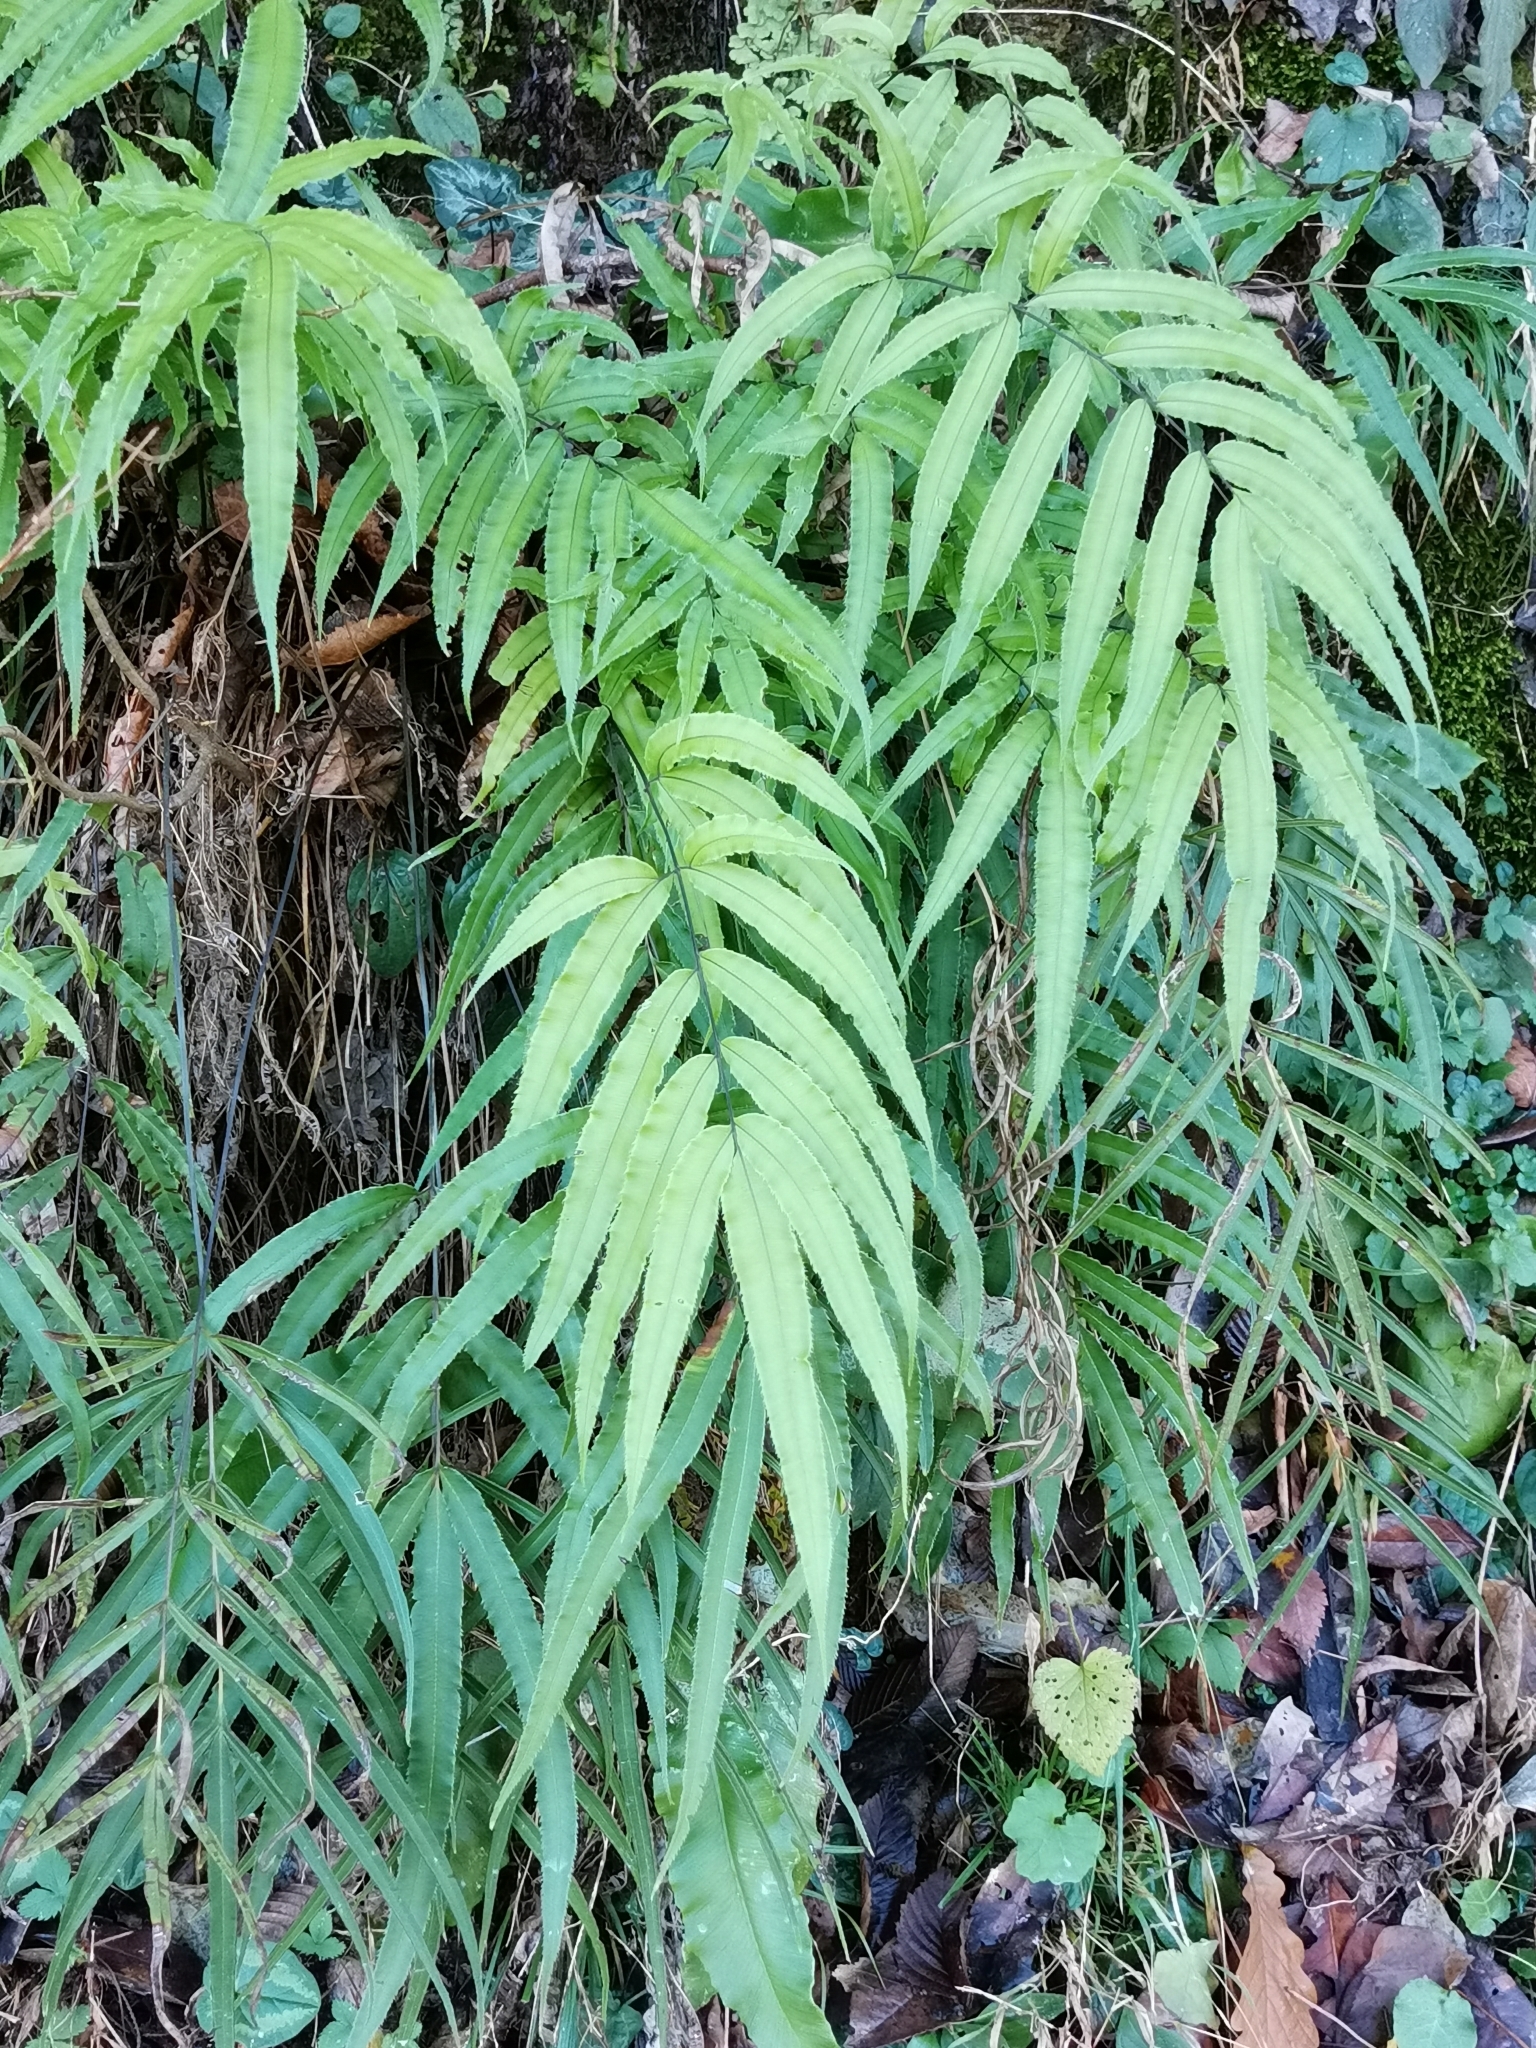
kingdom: Plantae
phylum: Tracheophyta
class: Polypodiopsida
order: Polypodiales
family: Pteridaceae
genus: Pteris
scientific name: Pteris cretica
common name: Ribbon fern
